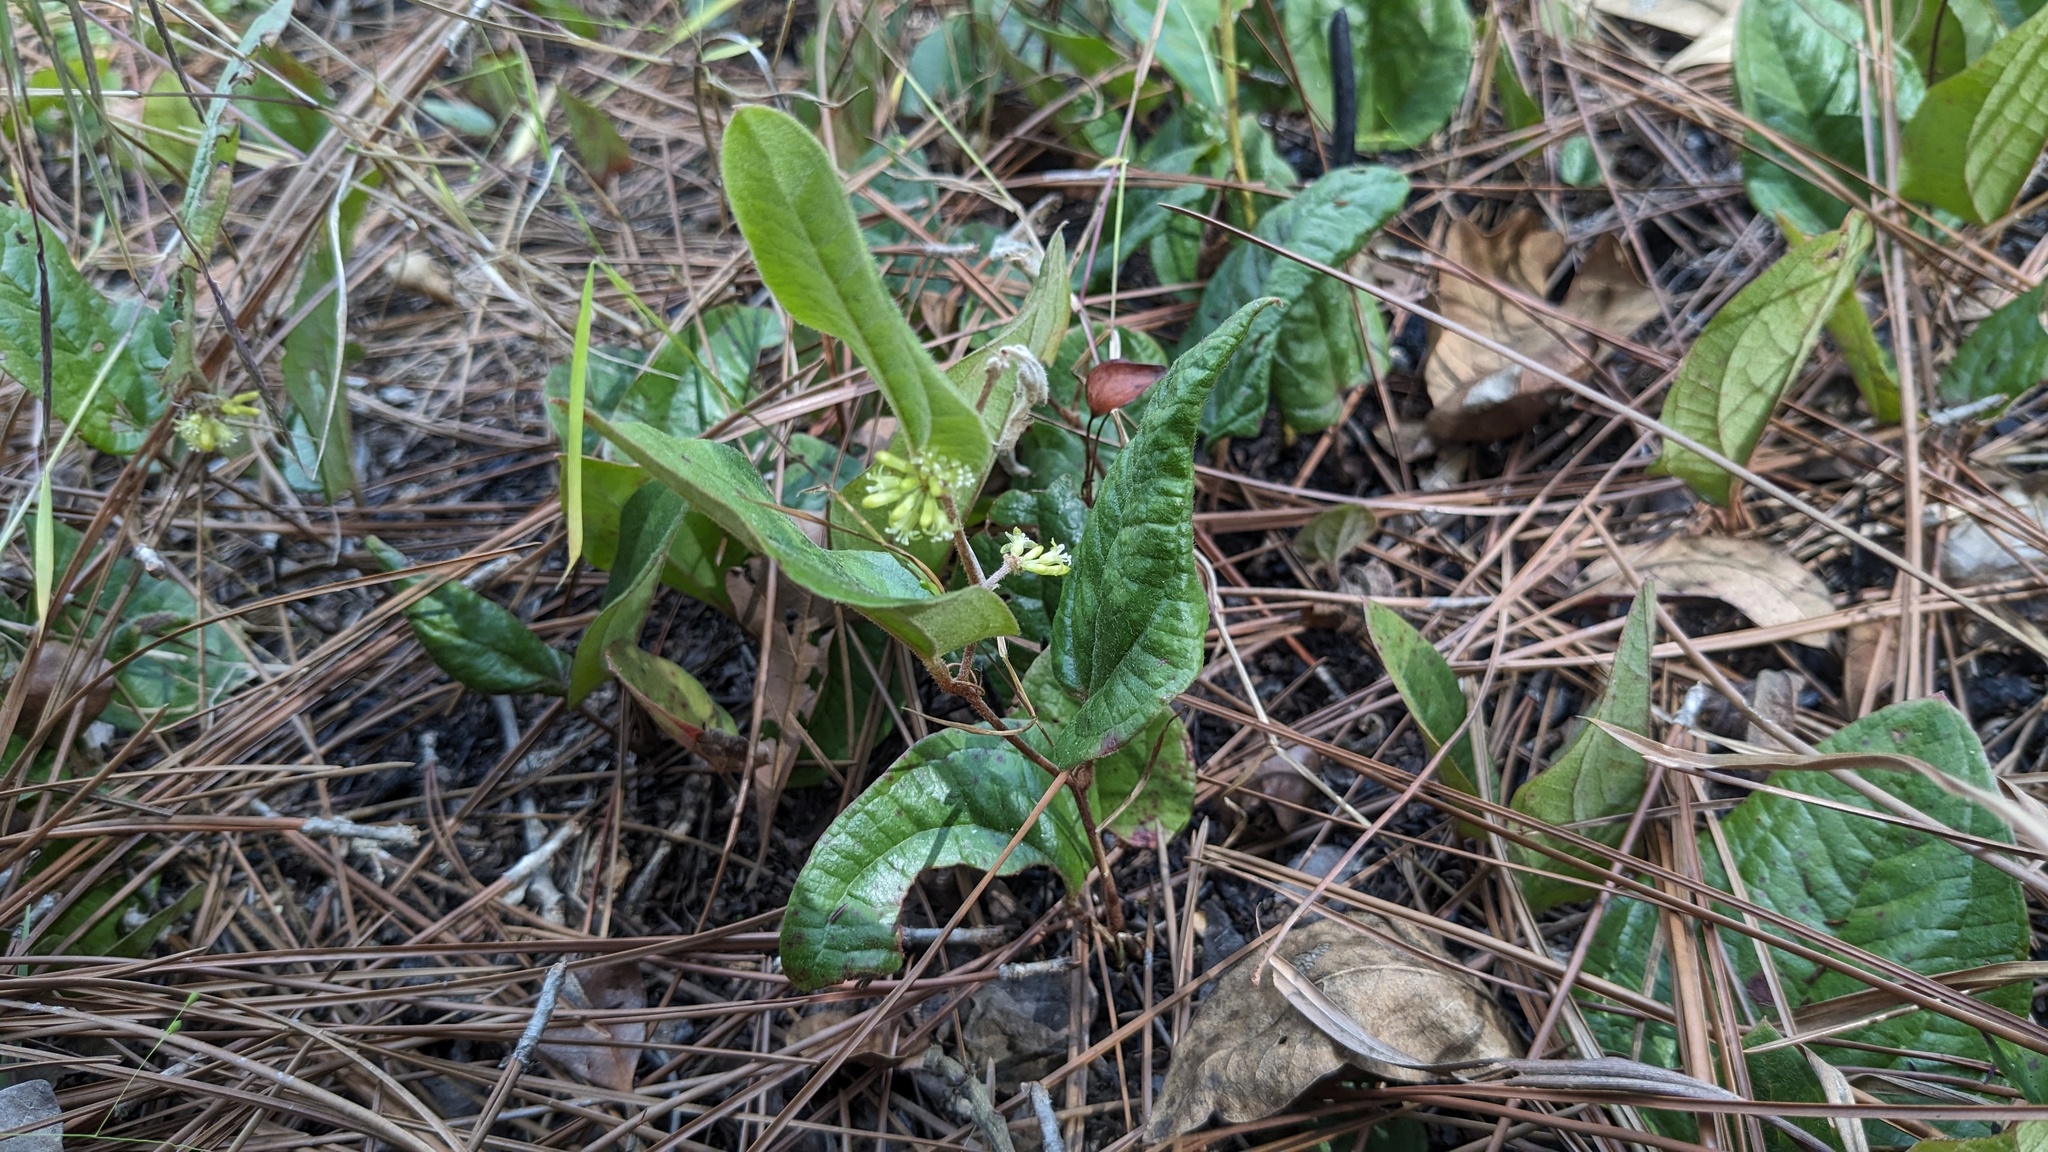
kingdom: Plantae
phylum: Tracheophyta
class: Liliopsida
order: Liliales
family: Smilacaceae
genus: Smilax
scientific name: Smilax pumila
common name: Sarsaparilla-vine
